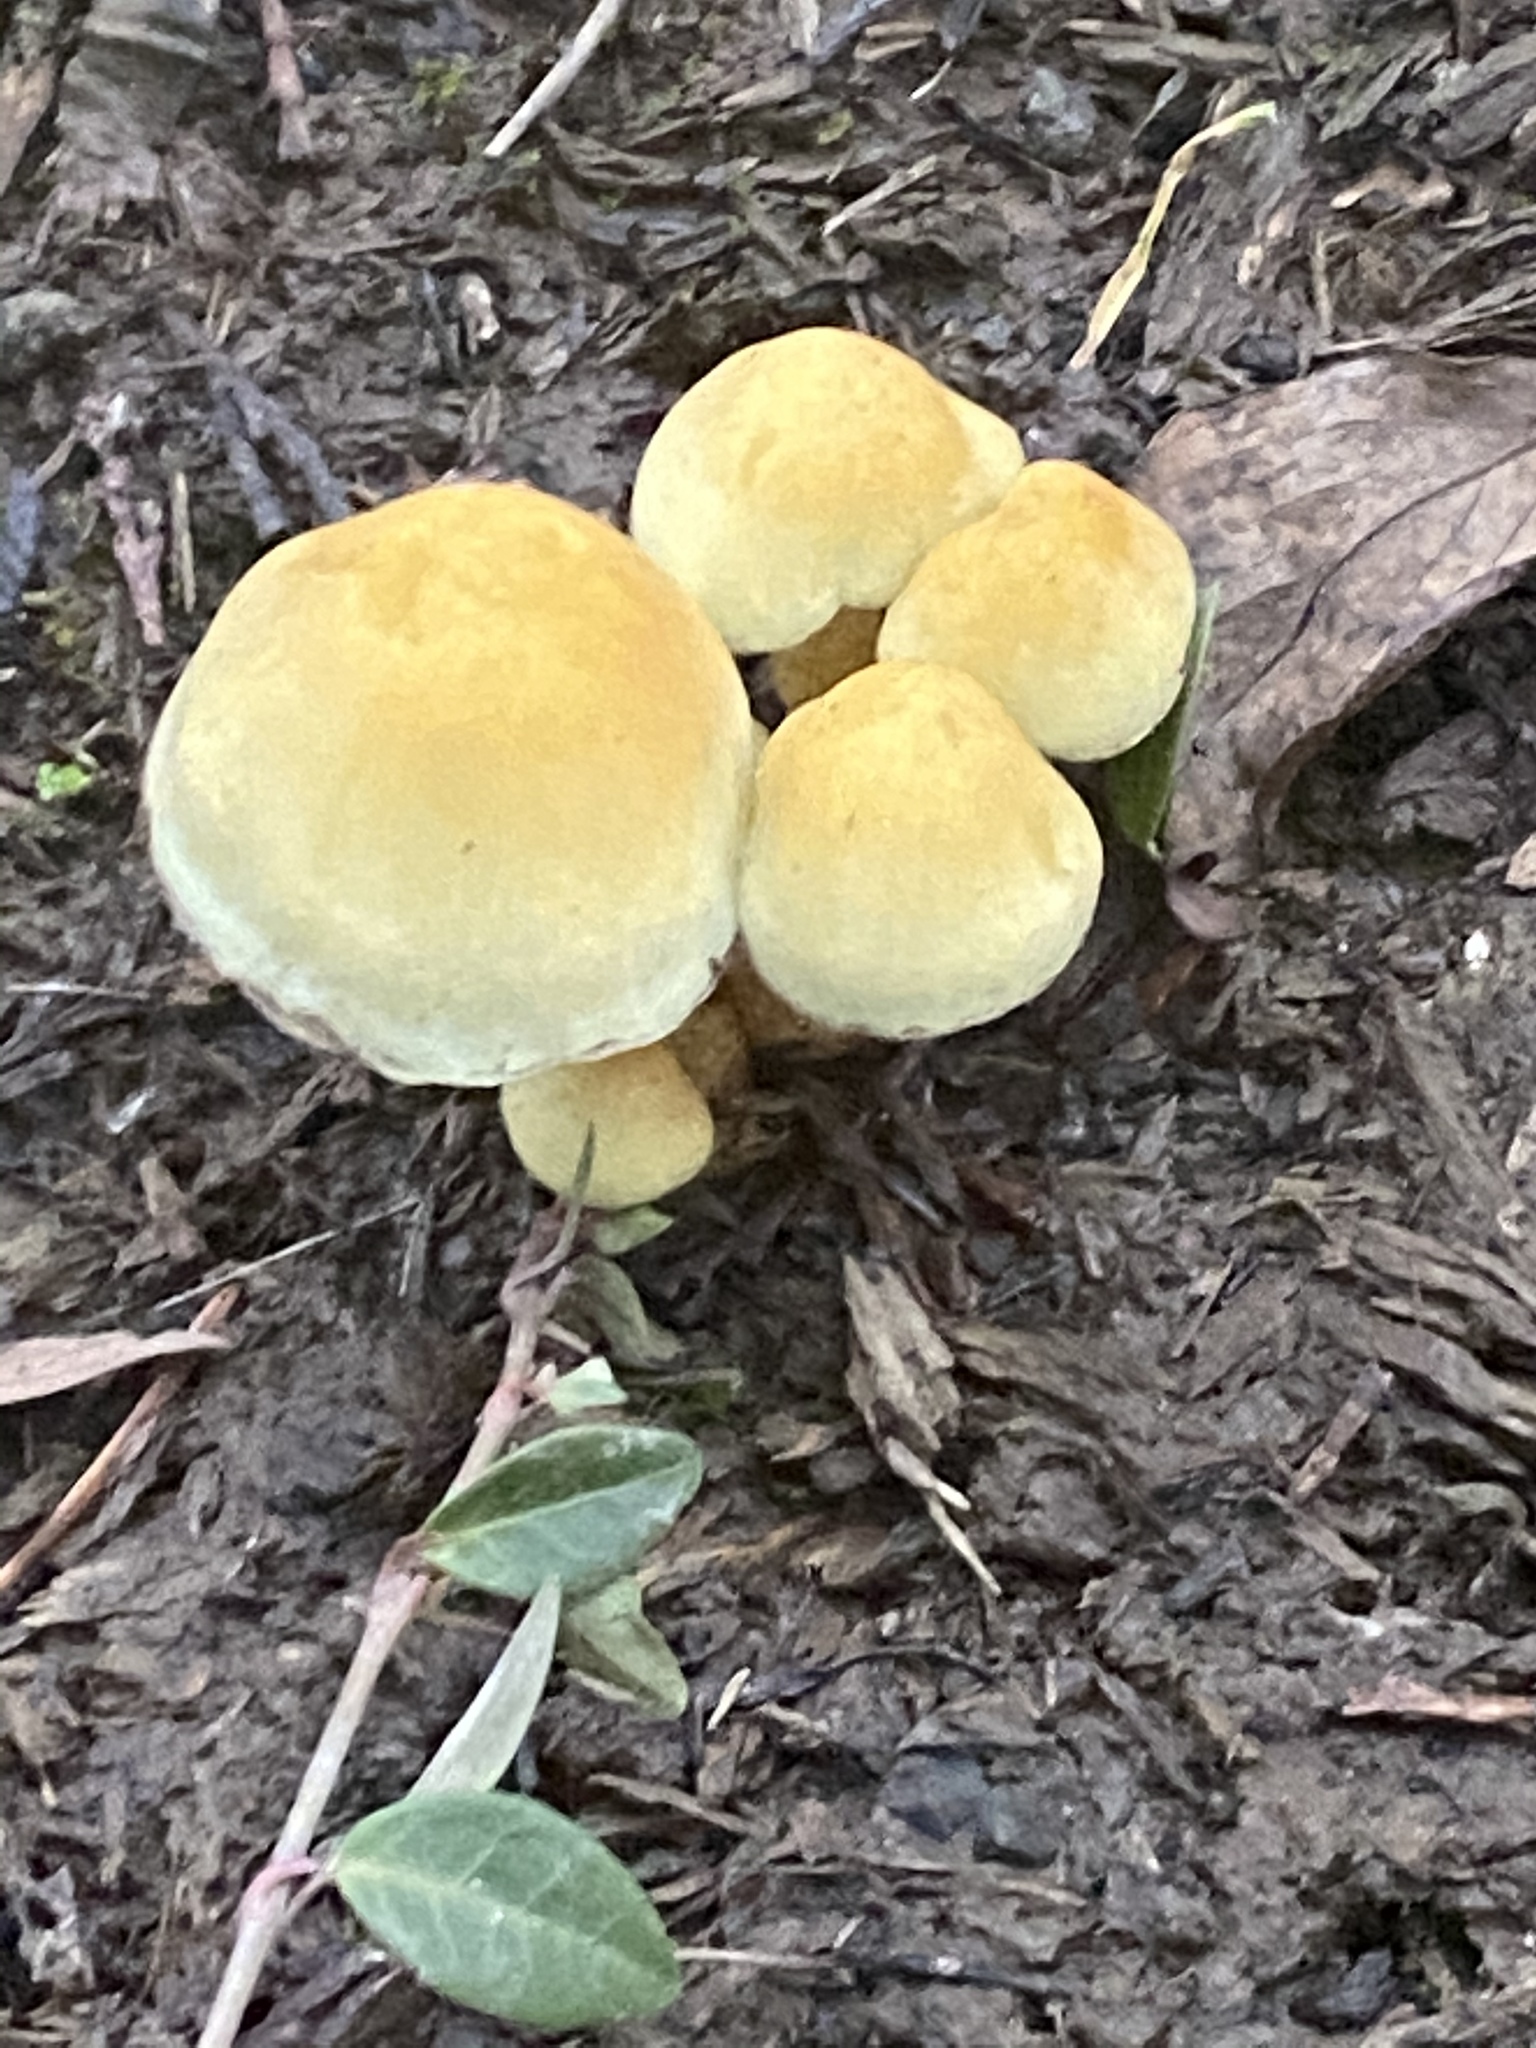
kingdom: Fungi
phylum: Basidiomycota
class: Agaricomycetes
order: Agaricales
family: Strophariaceae
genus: Hypholoma
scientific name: Hypholoma fasciculare
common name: Sulphur tuft
